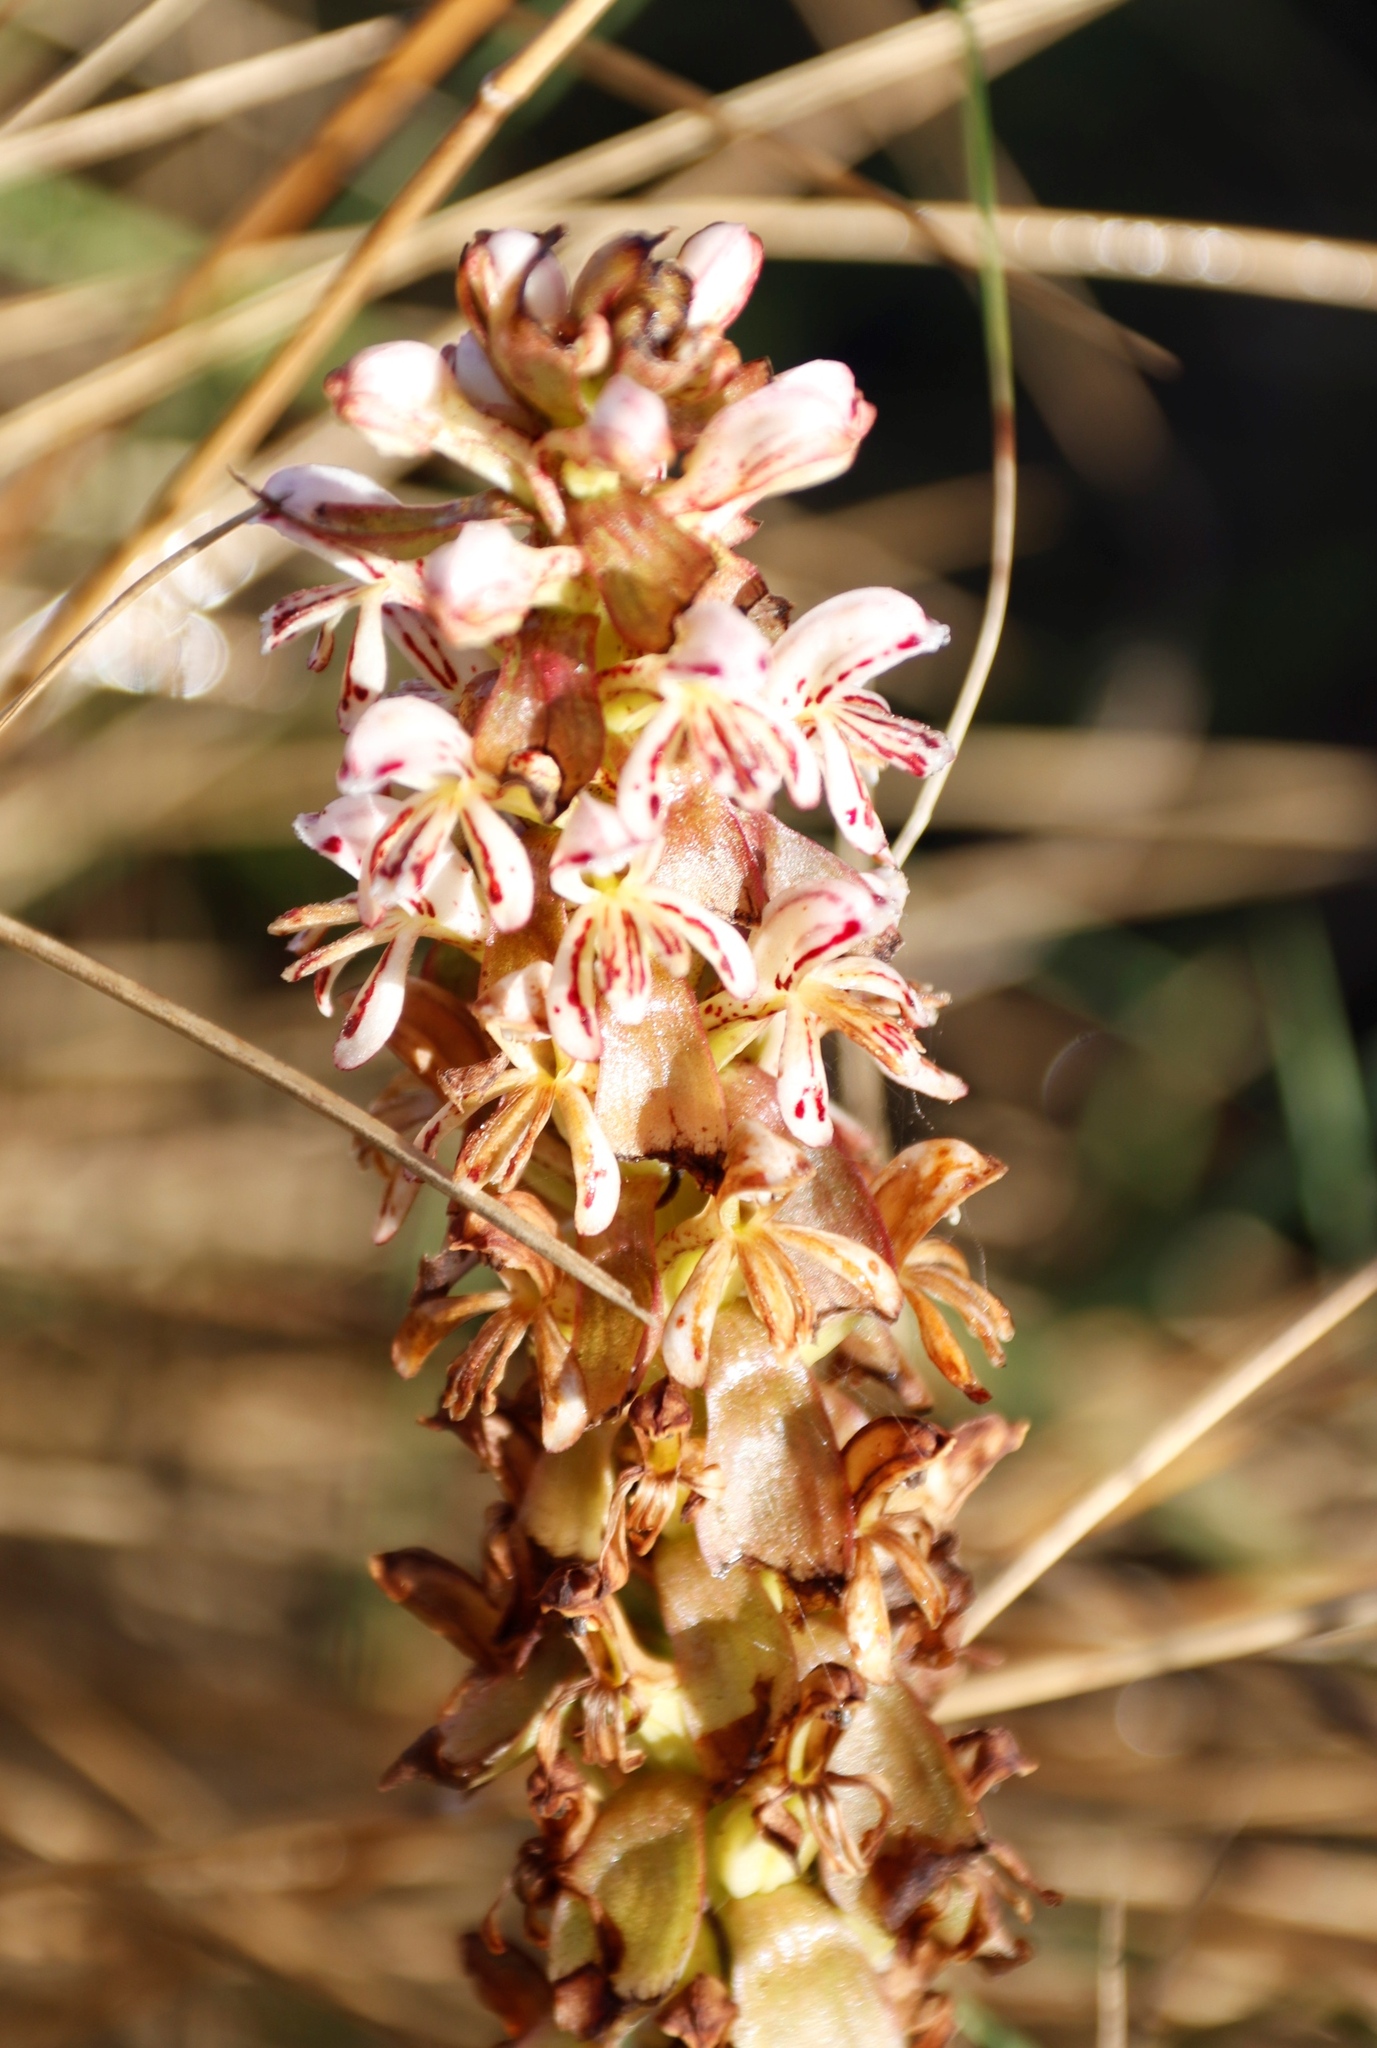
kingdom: Plantae
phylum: Tracheophyta
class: Liliopsida
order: Asparagales
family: Orchidaceae
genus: Satyrium
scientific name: Satyrium cristatum
